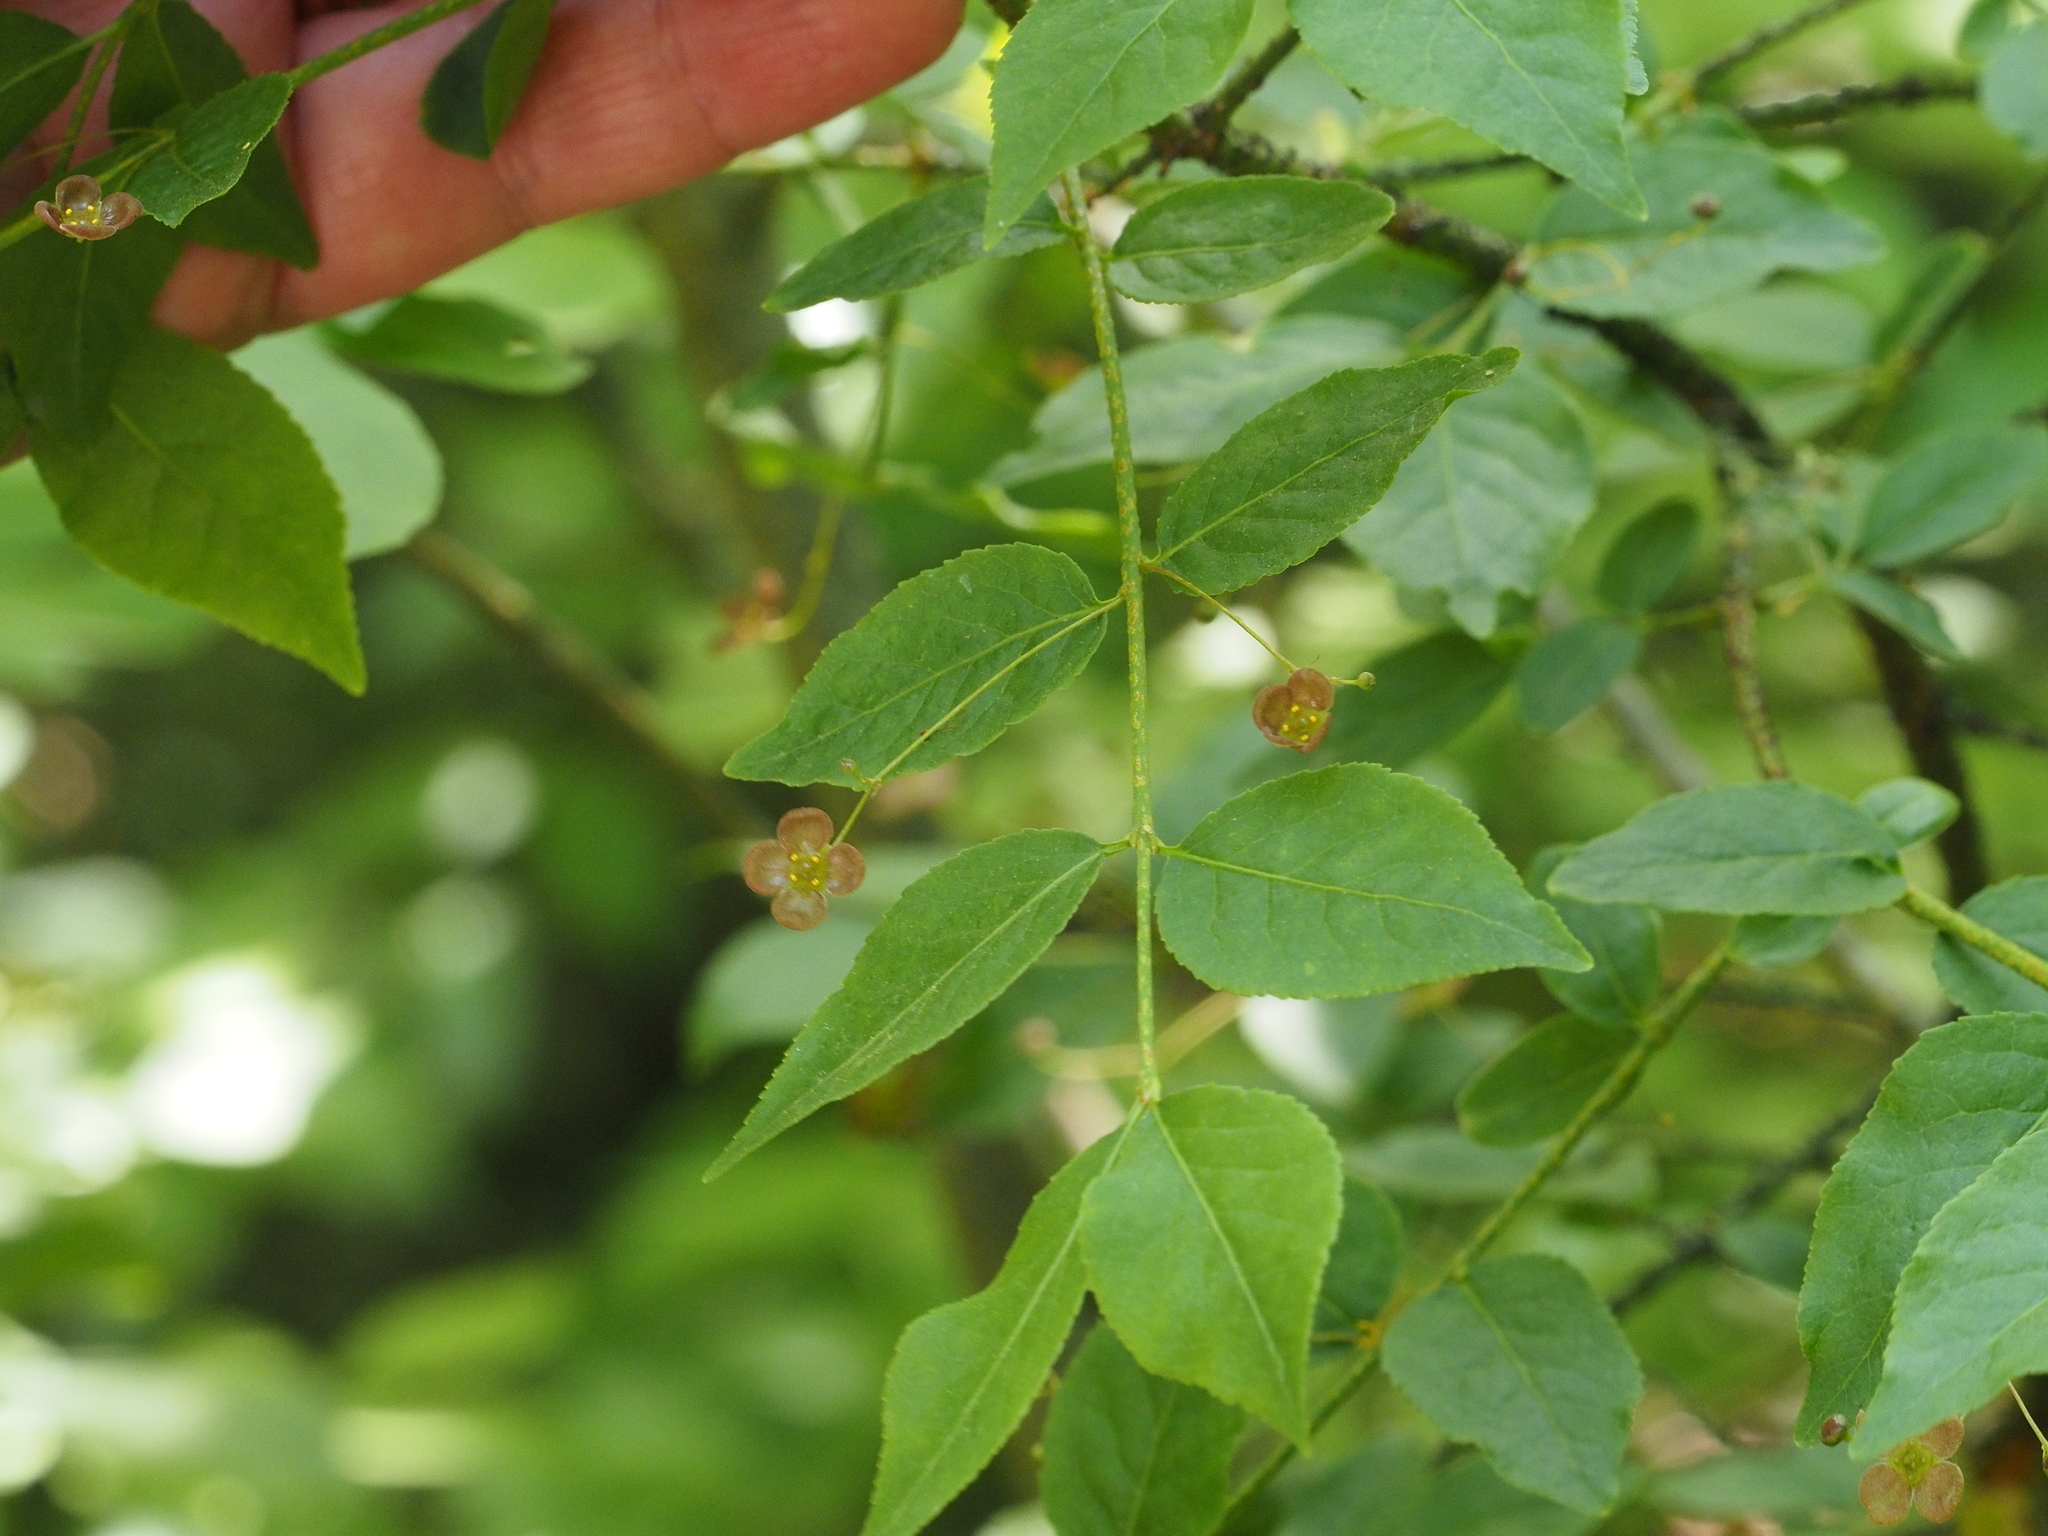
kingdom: Plantae
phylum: Tracheophyta
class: Magnoliopsida
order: Celastrales
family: Celastraceae
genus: Euonymus
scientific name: Euonymus verrucosus
